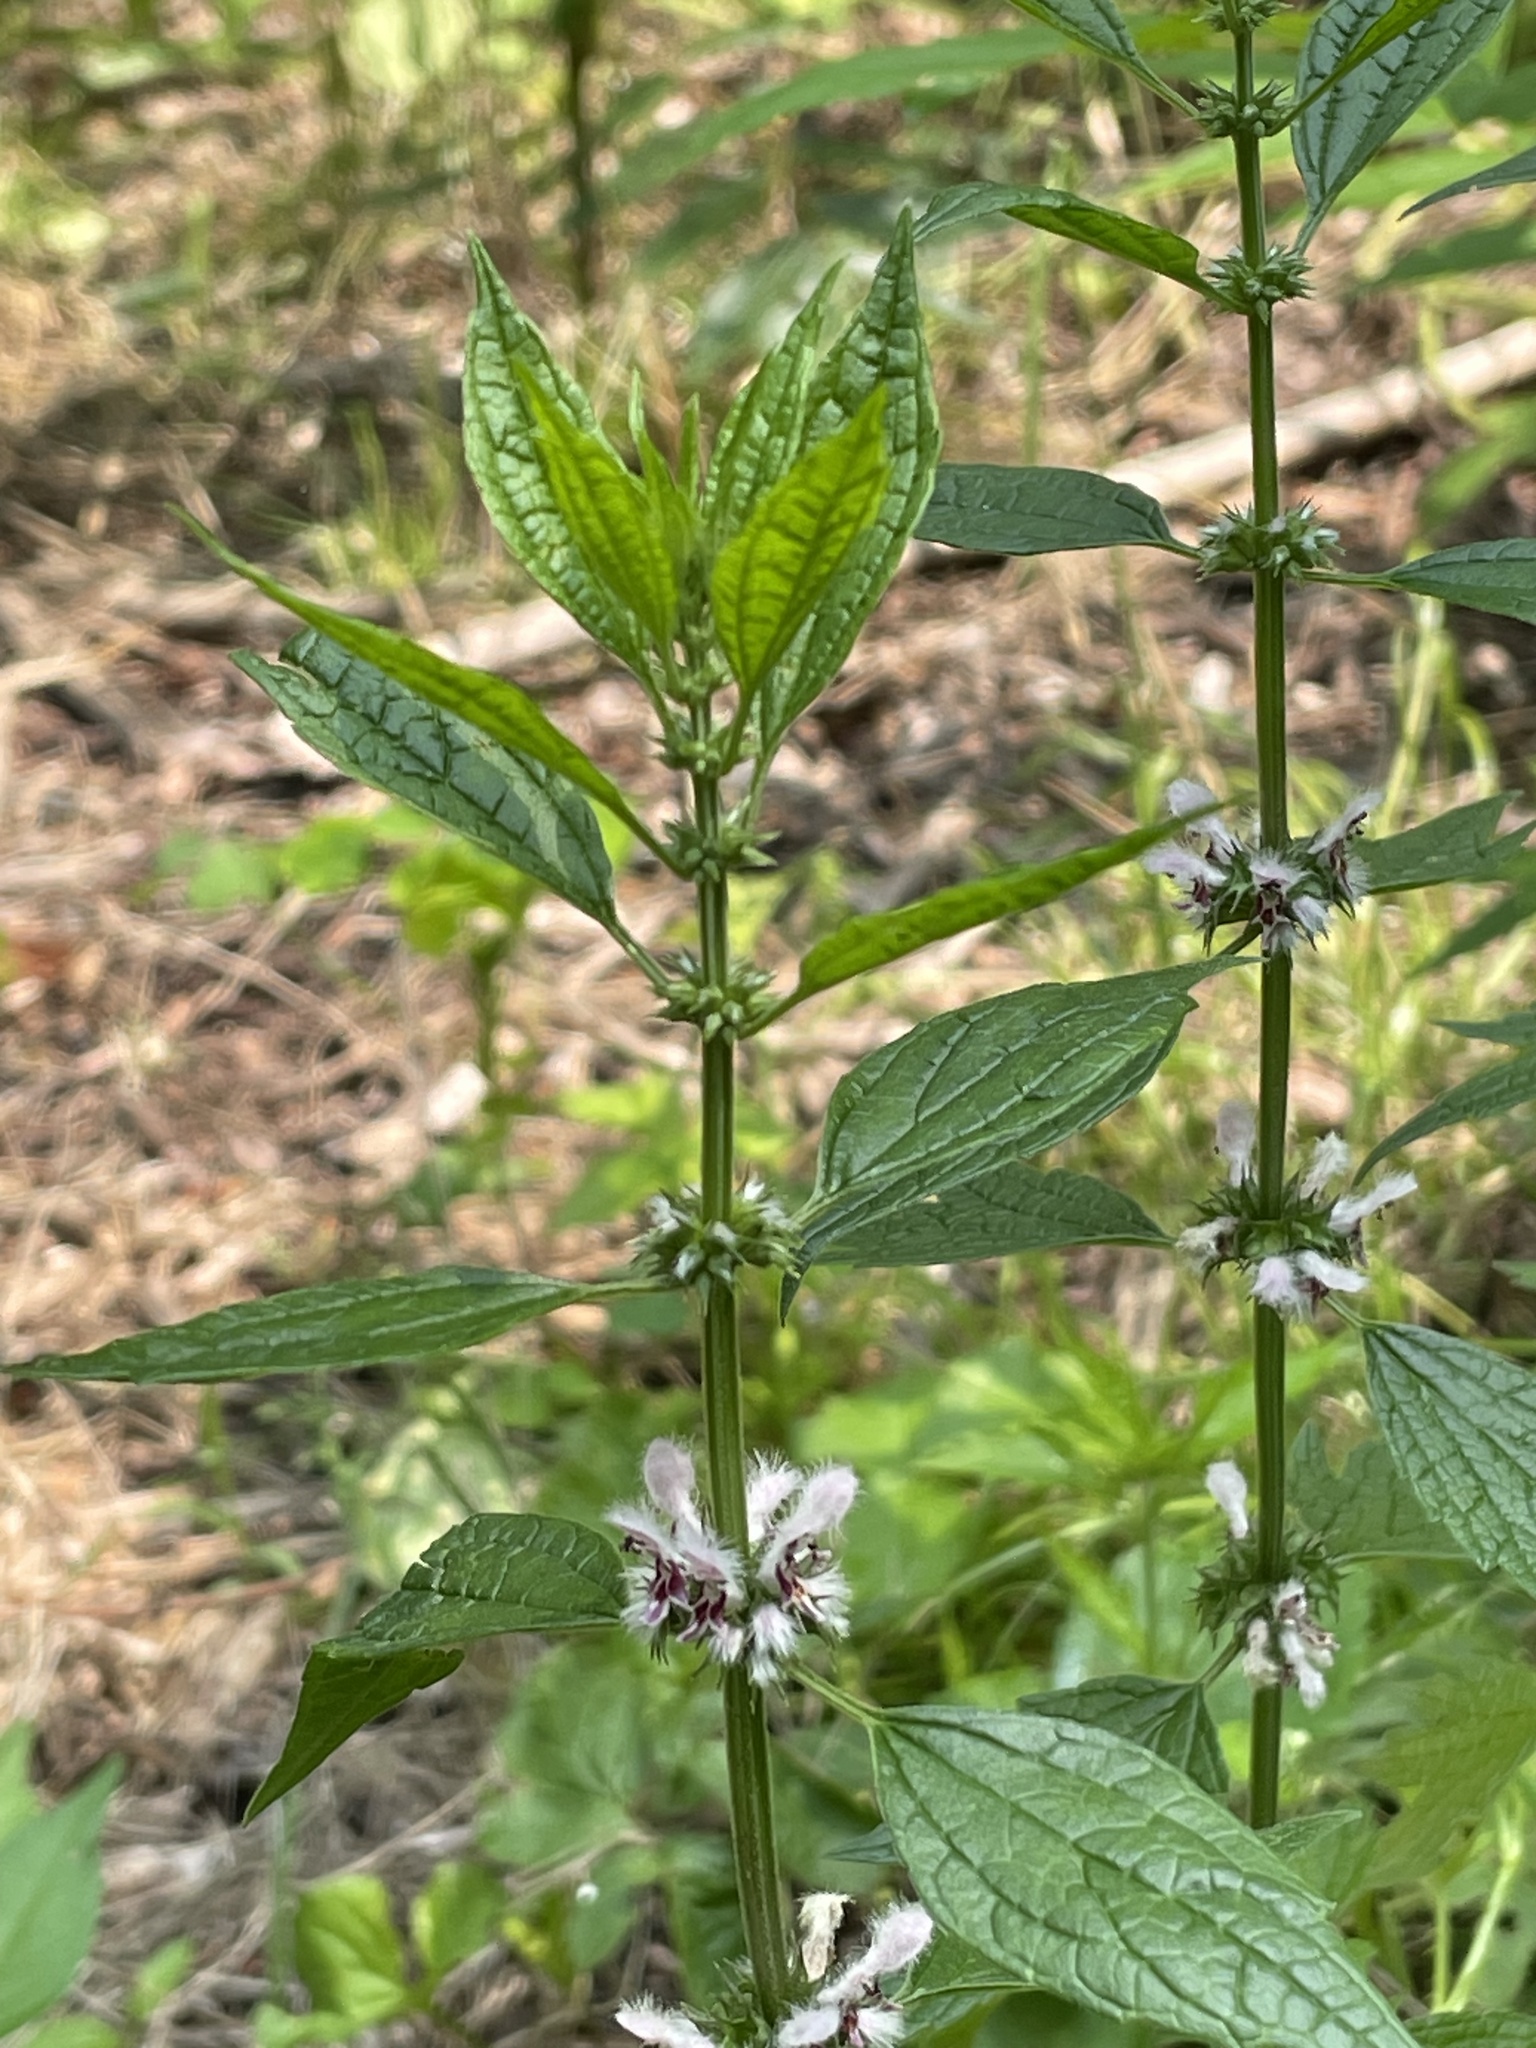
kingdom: Plantae
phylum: Tracheophyta
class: Magnoliopsida
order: Lamiales
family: Lamiaceae
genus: Leonurus
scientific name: Leonurus cardiaca
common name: Motherwort
